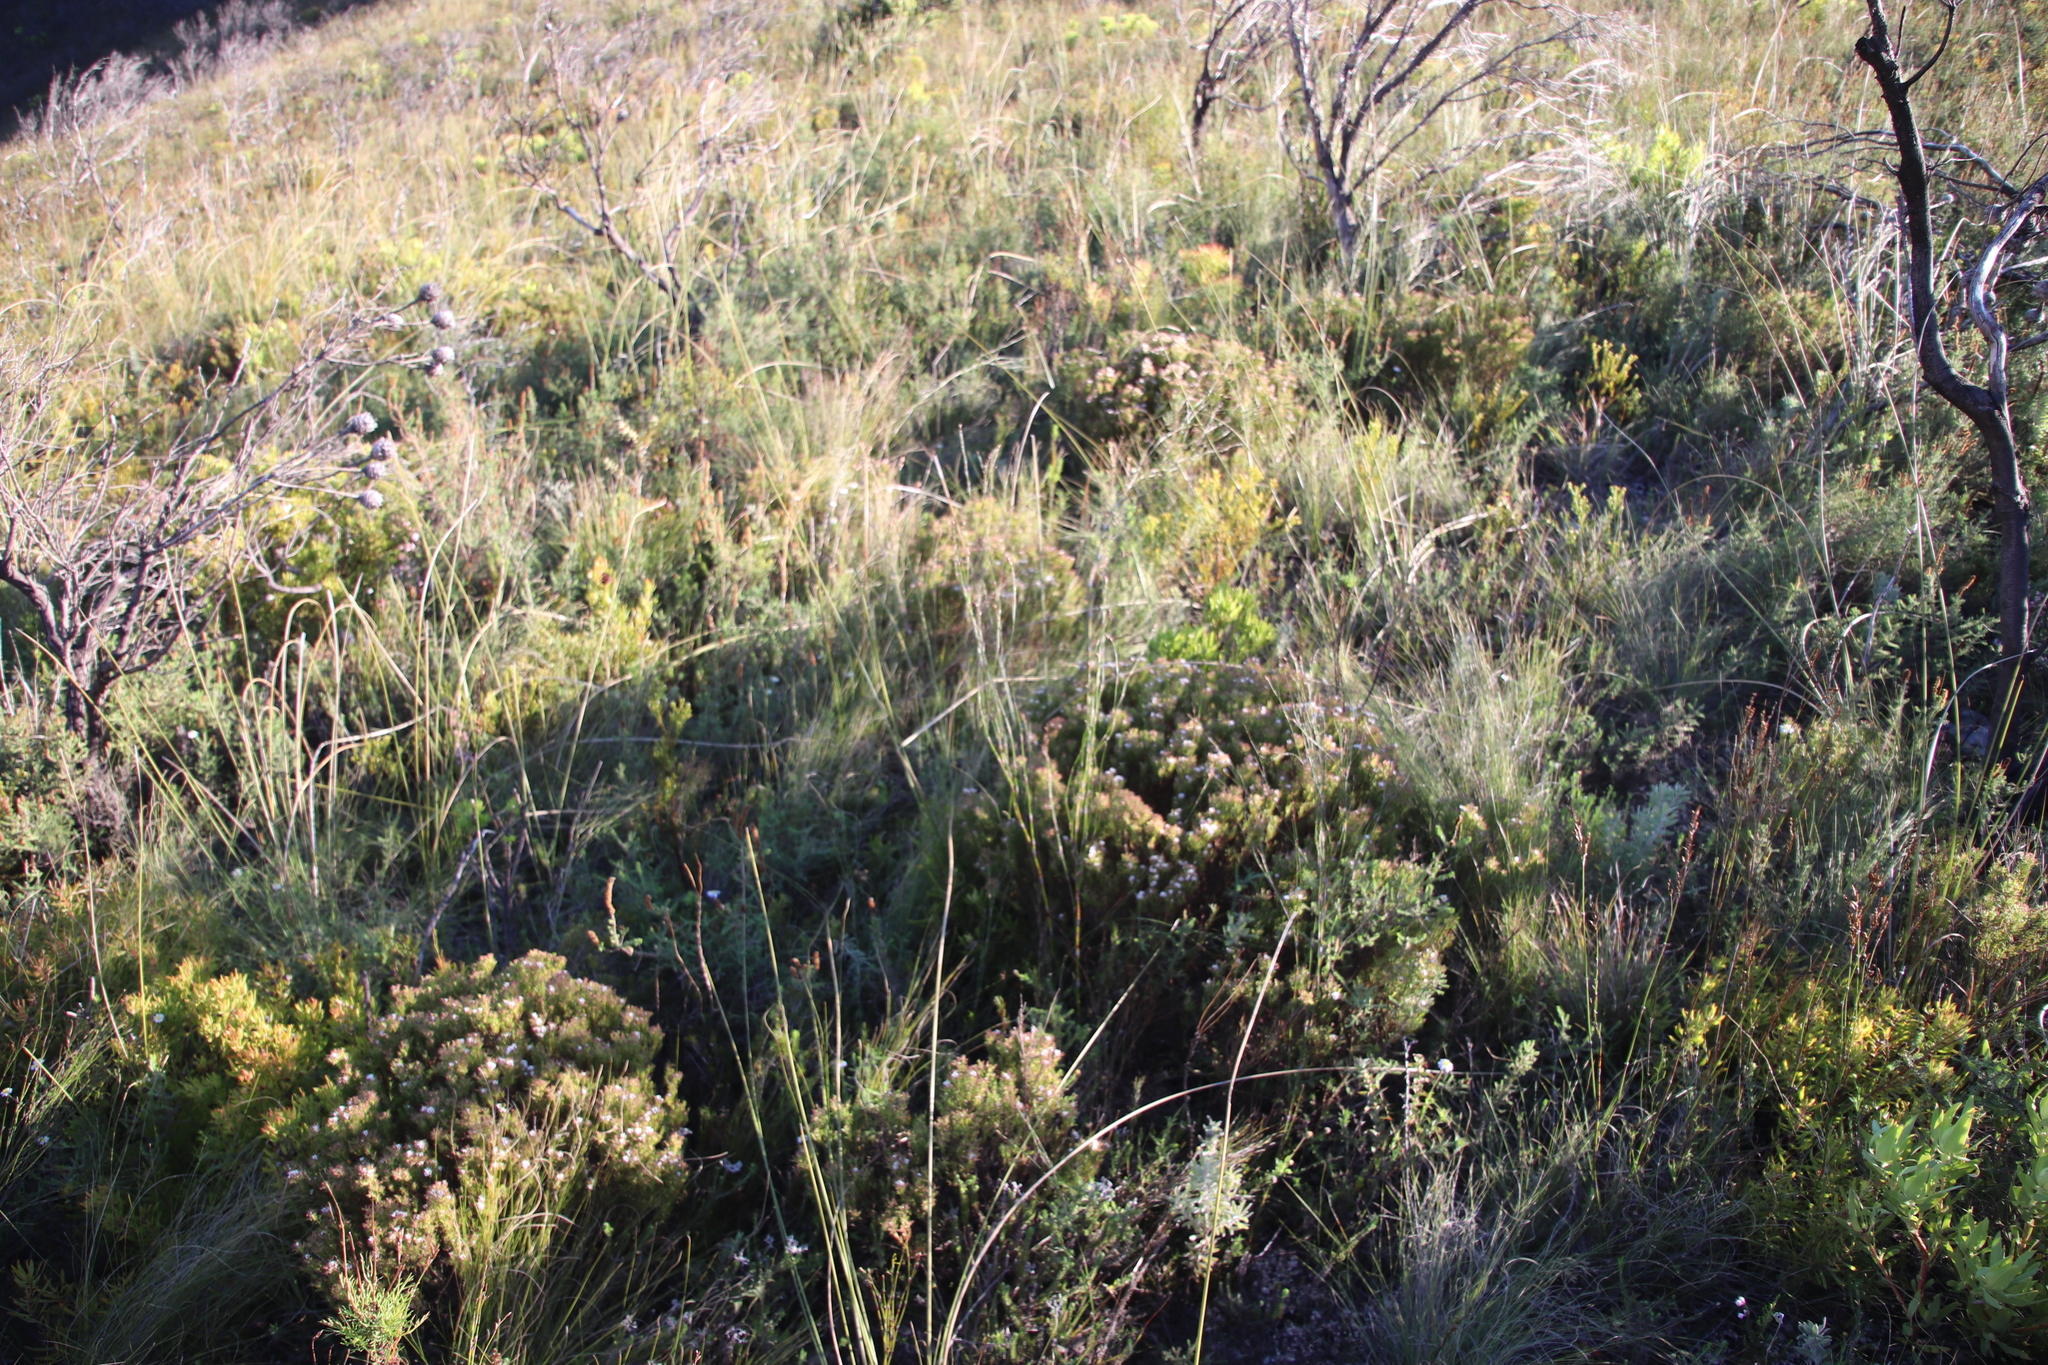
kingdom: Plantae
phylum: Tracheophyta
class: Magnoliopsida
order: Sapindales
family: Rutaceae
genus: Diosma
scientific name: Diosma hirsuta
